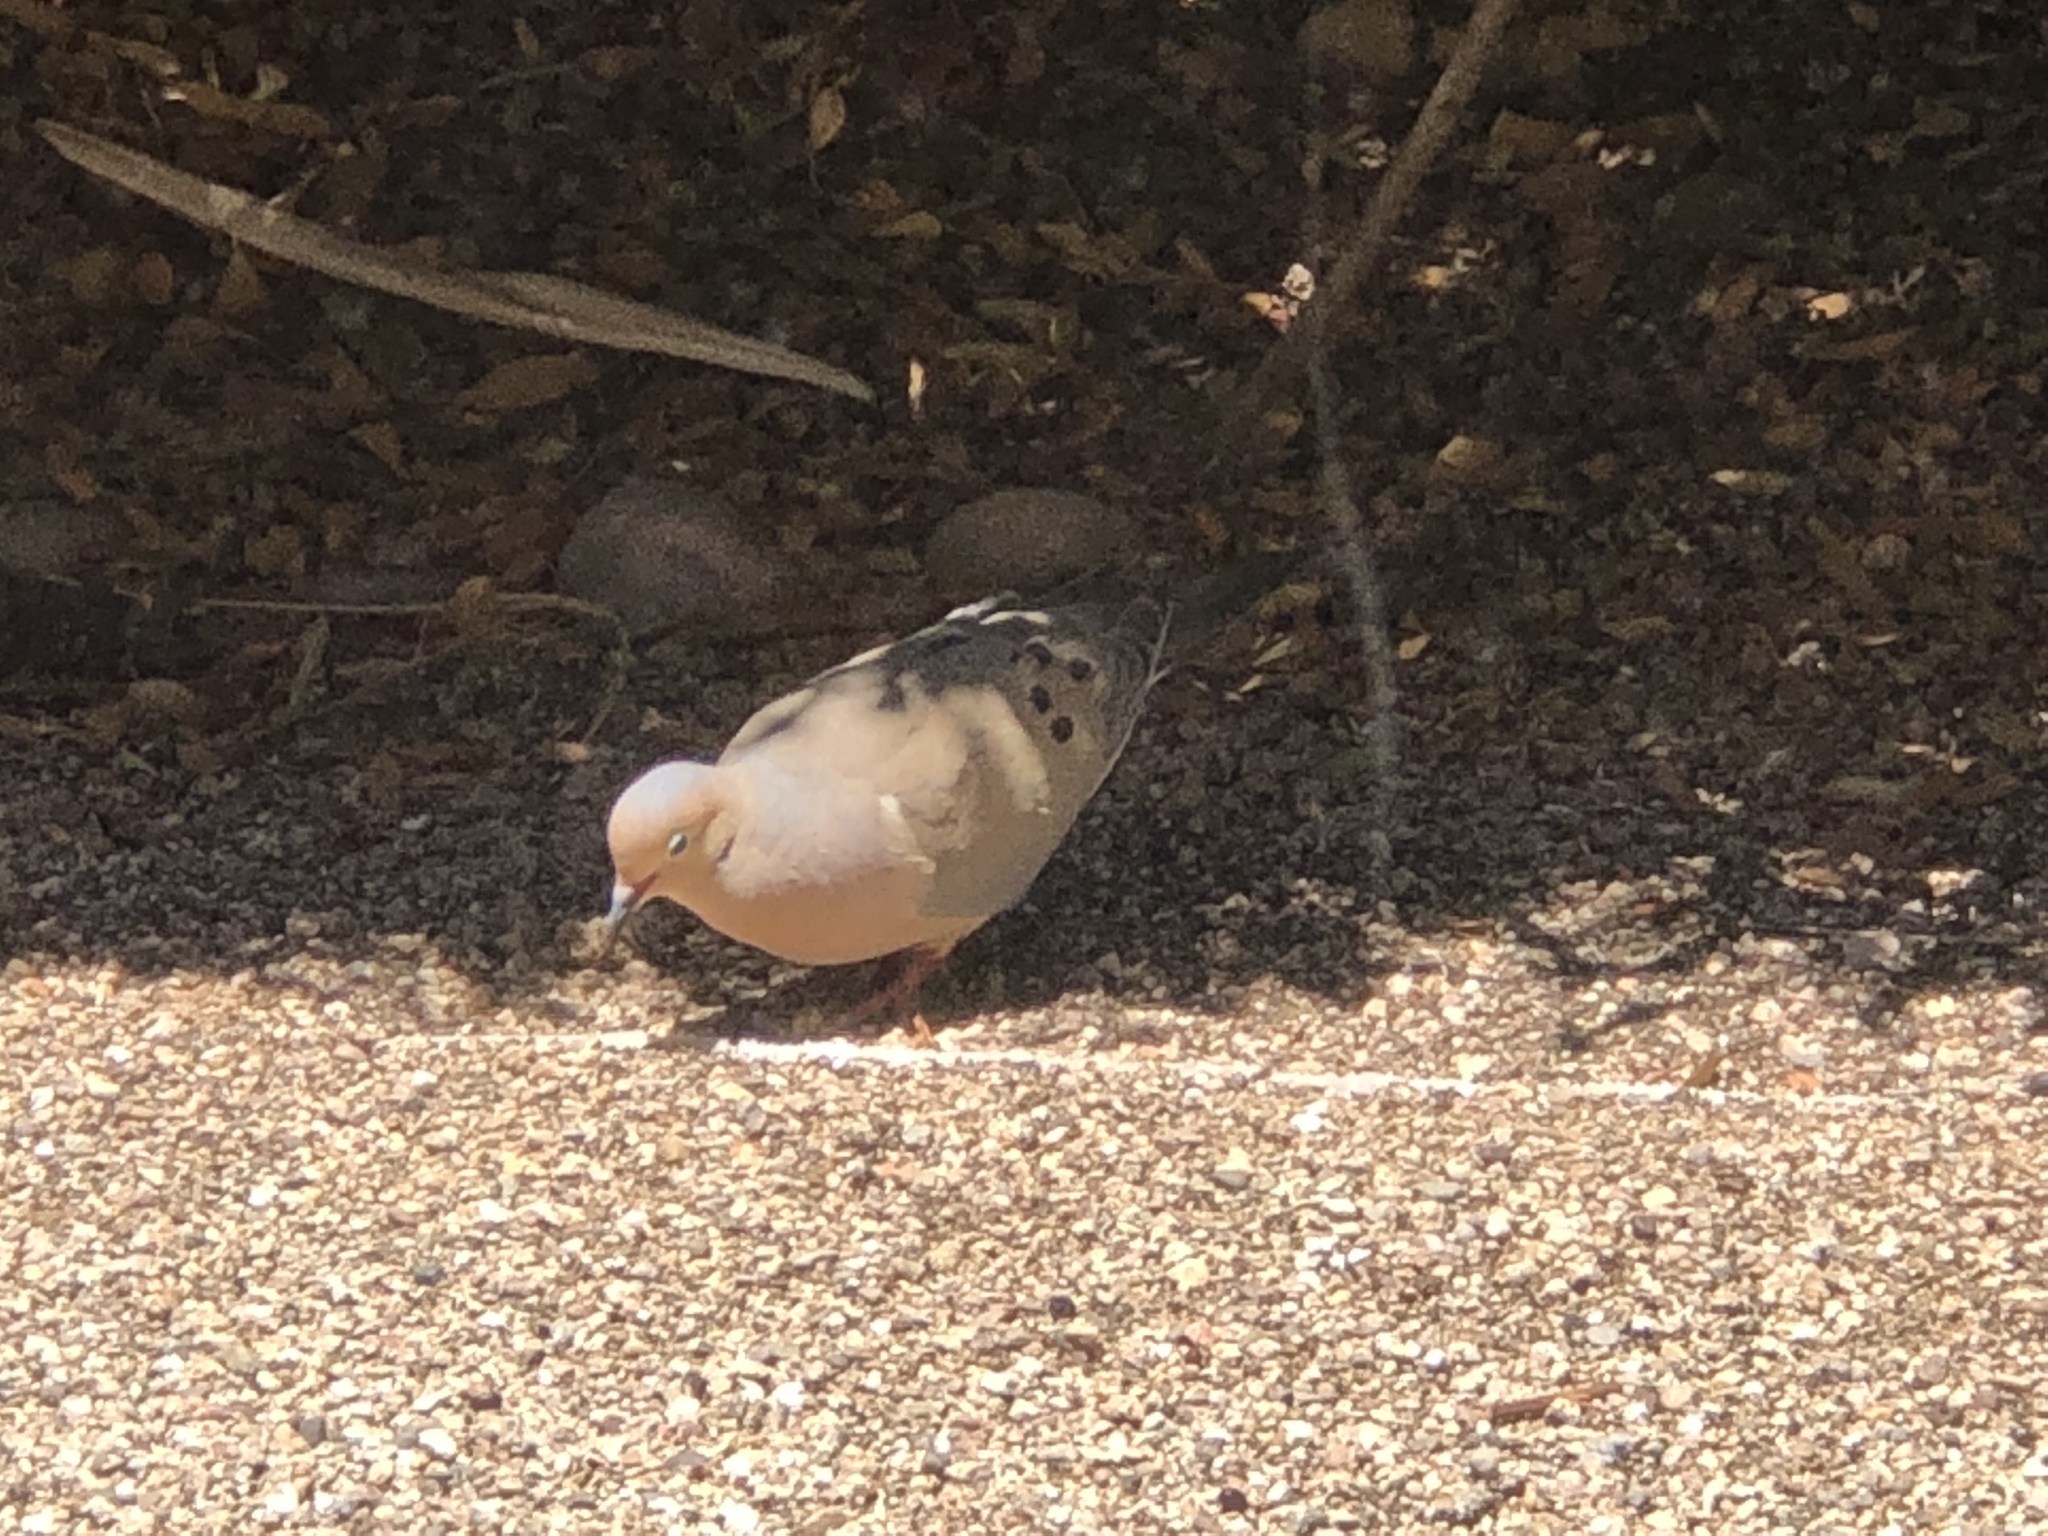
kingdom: Animalia
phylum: Chordata
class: Aves
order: Columbiformes
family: Columbidae
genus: Zenaida
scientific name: Zenaida macroura
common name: Mourning dove
